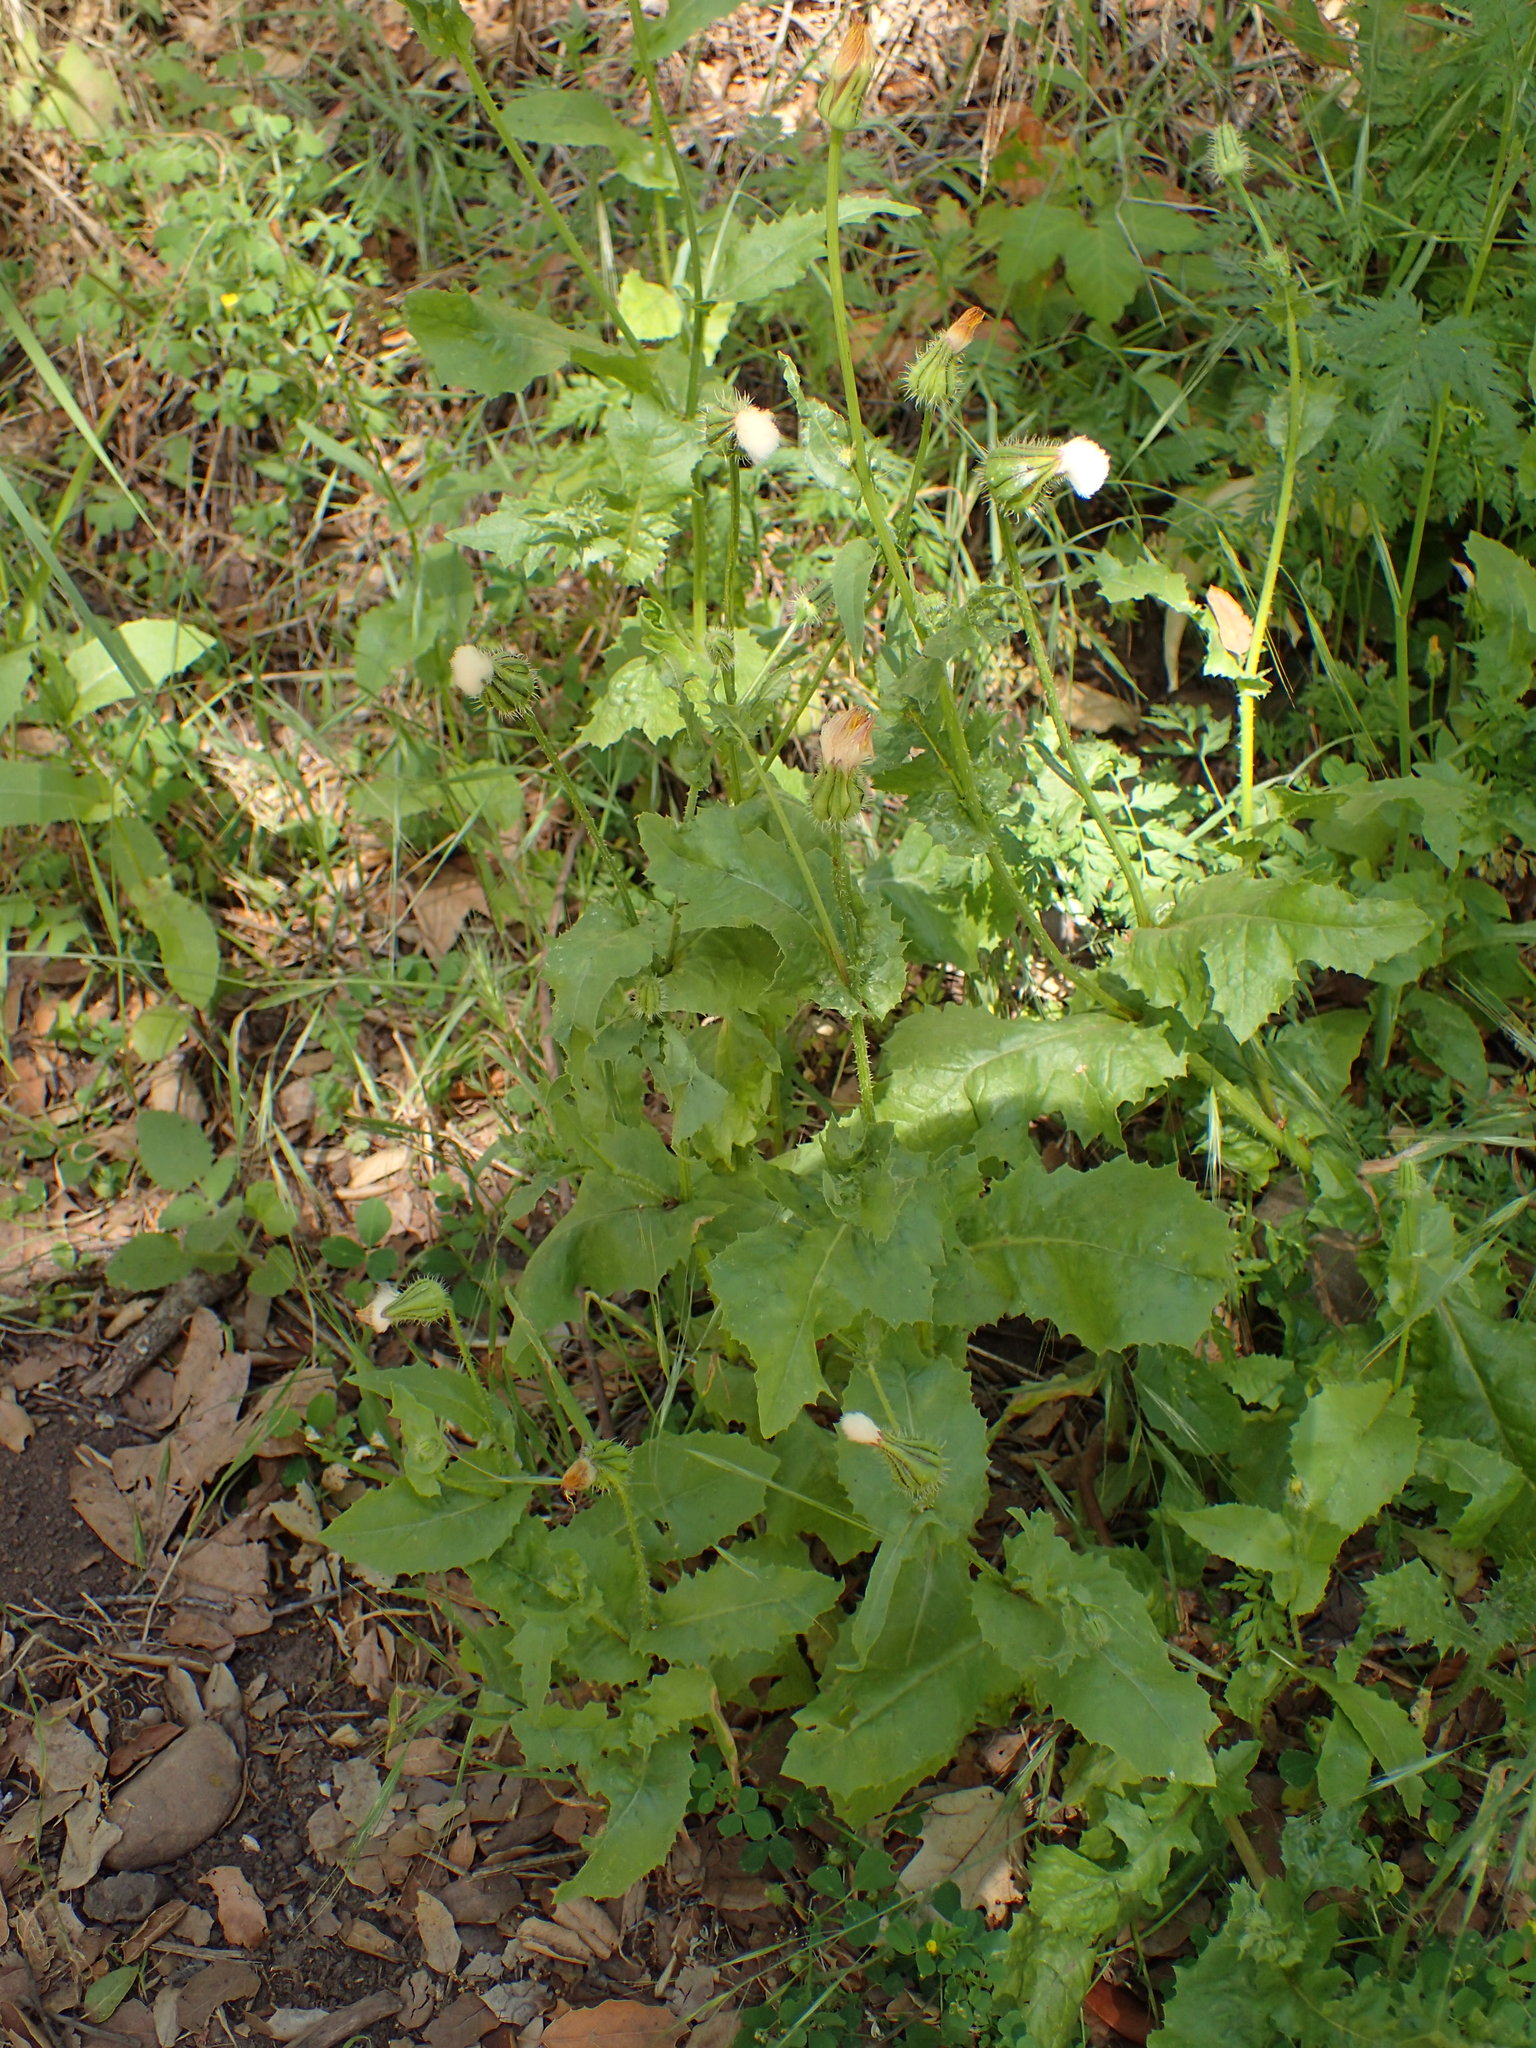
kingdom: Plantae
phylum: Tracheophyta
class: Magnoliopsida
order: Asterales
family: Asteraceae
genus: Urospermum
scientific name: Urospermum picroides
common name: False hawkbit
